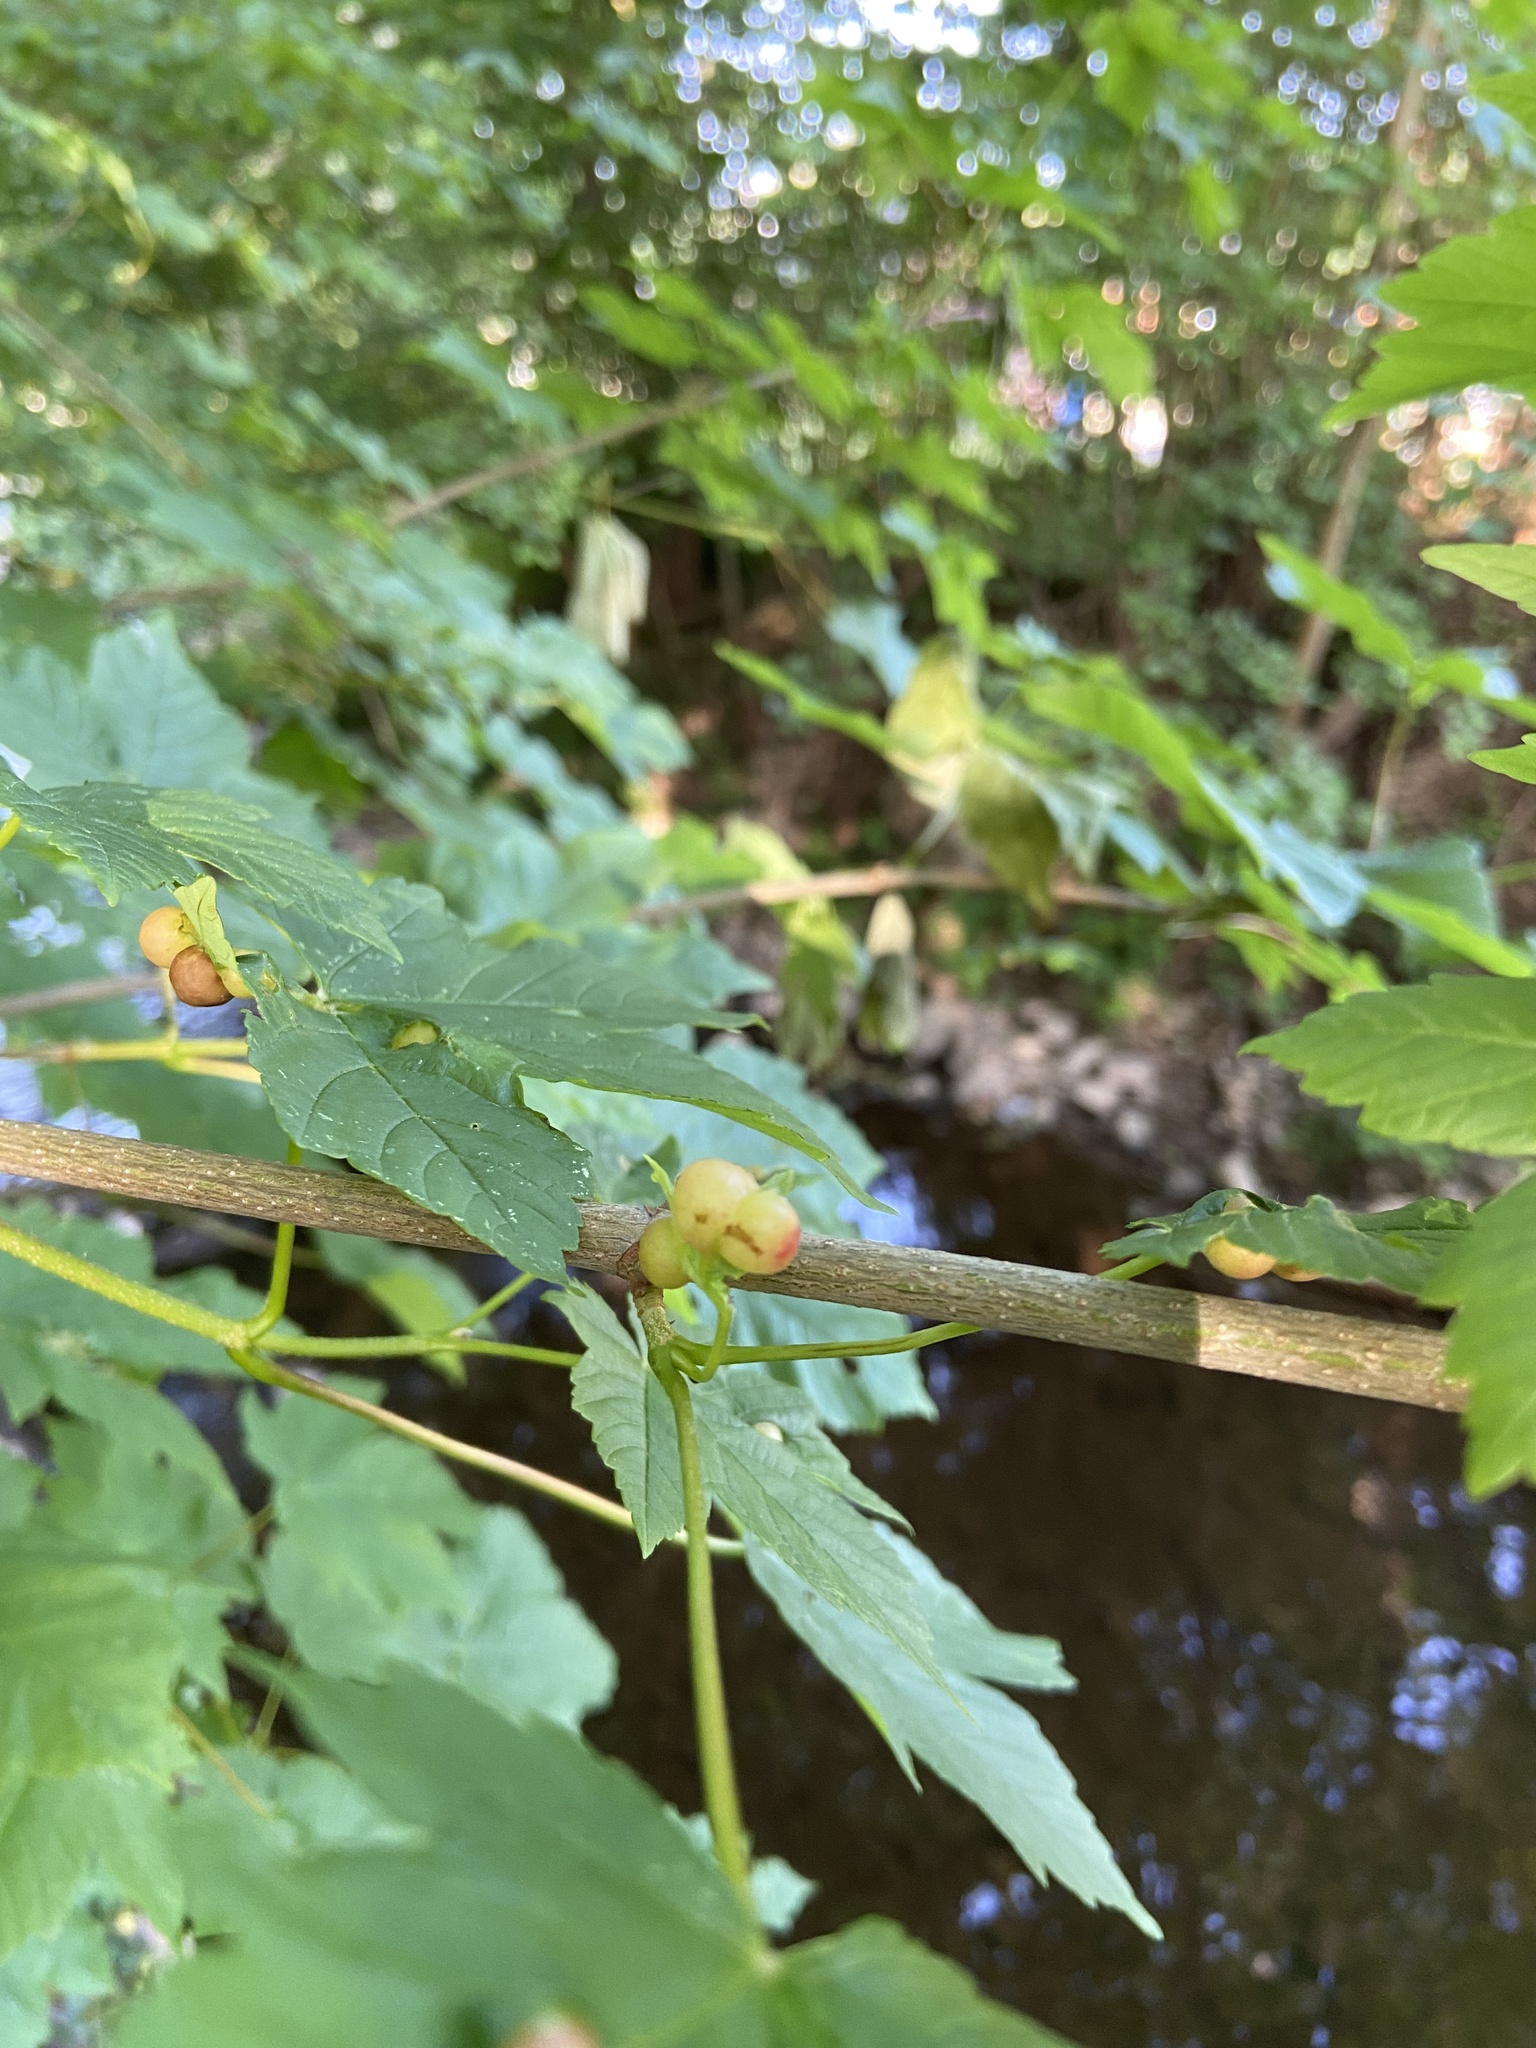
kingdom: Animalia
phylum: Arthropoda
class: Insecta
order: Hymenoptera
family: Cynipidae
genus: Pediaspis
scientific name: Pediaspis aceris
